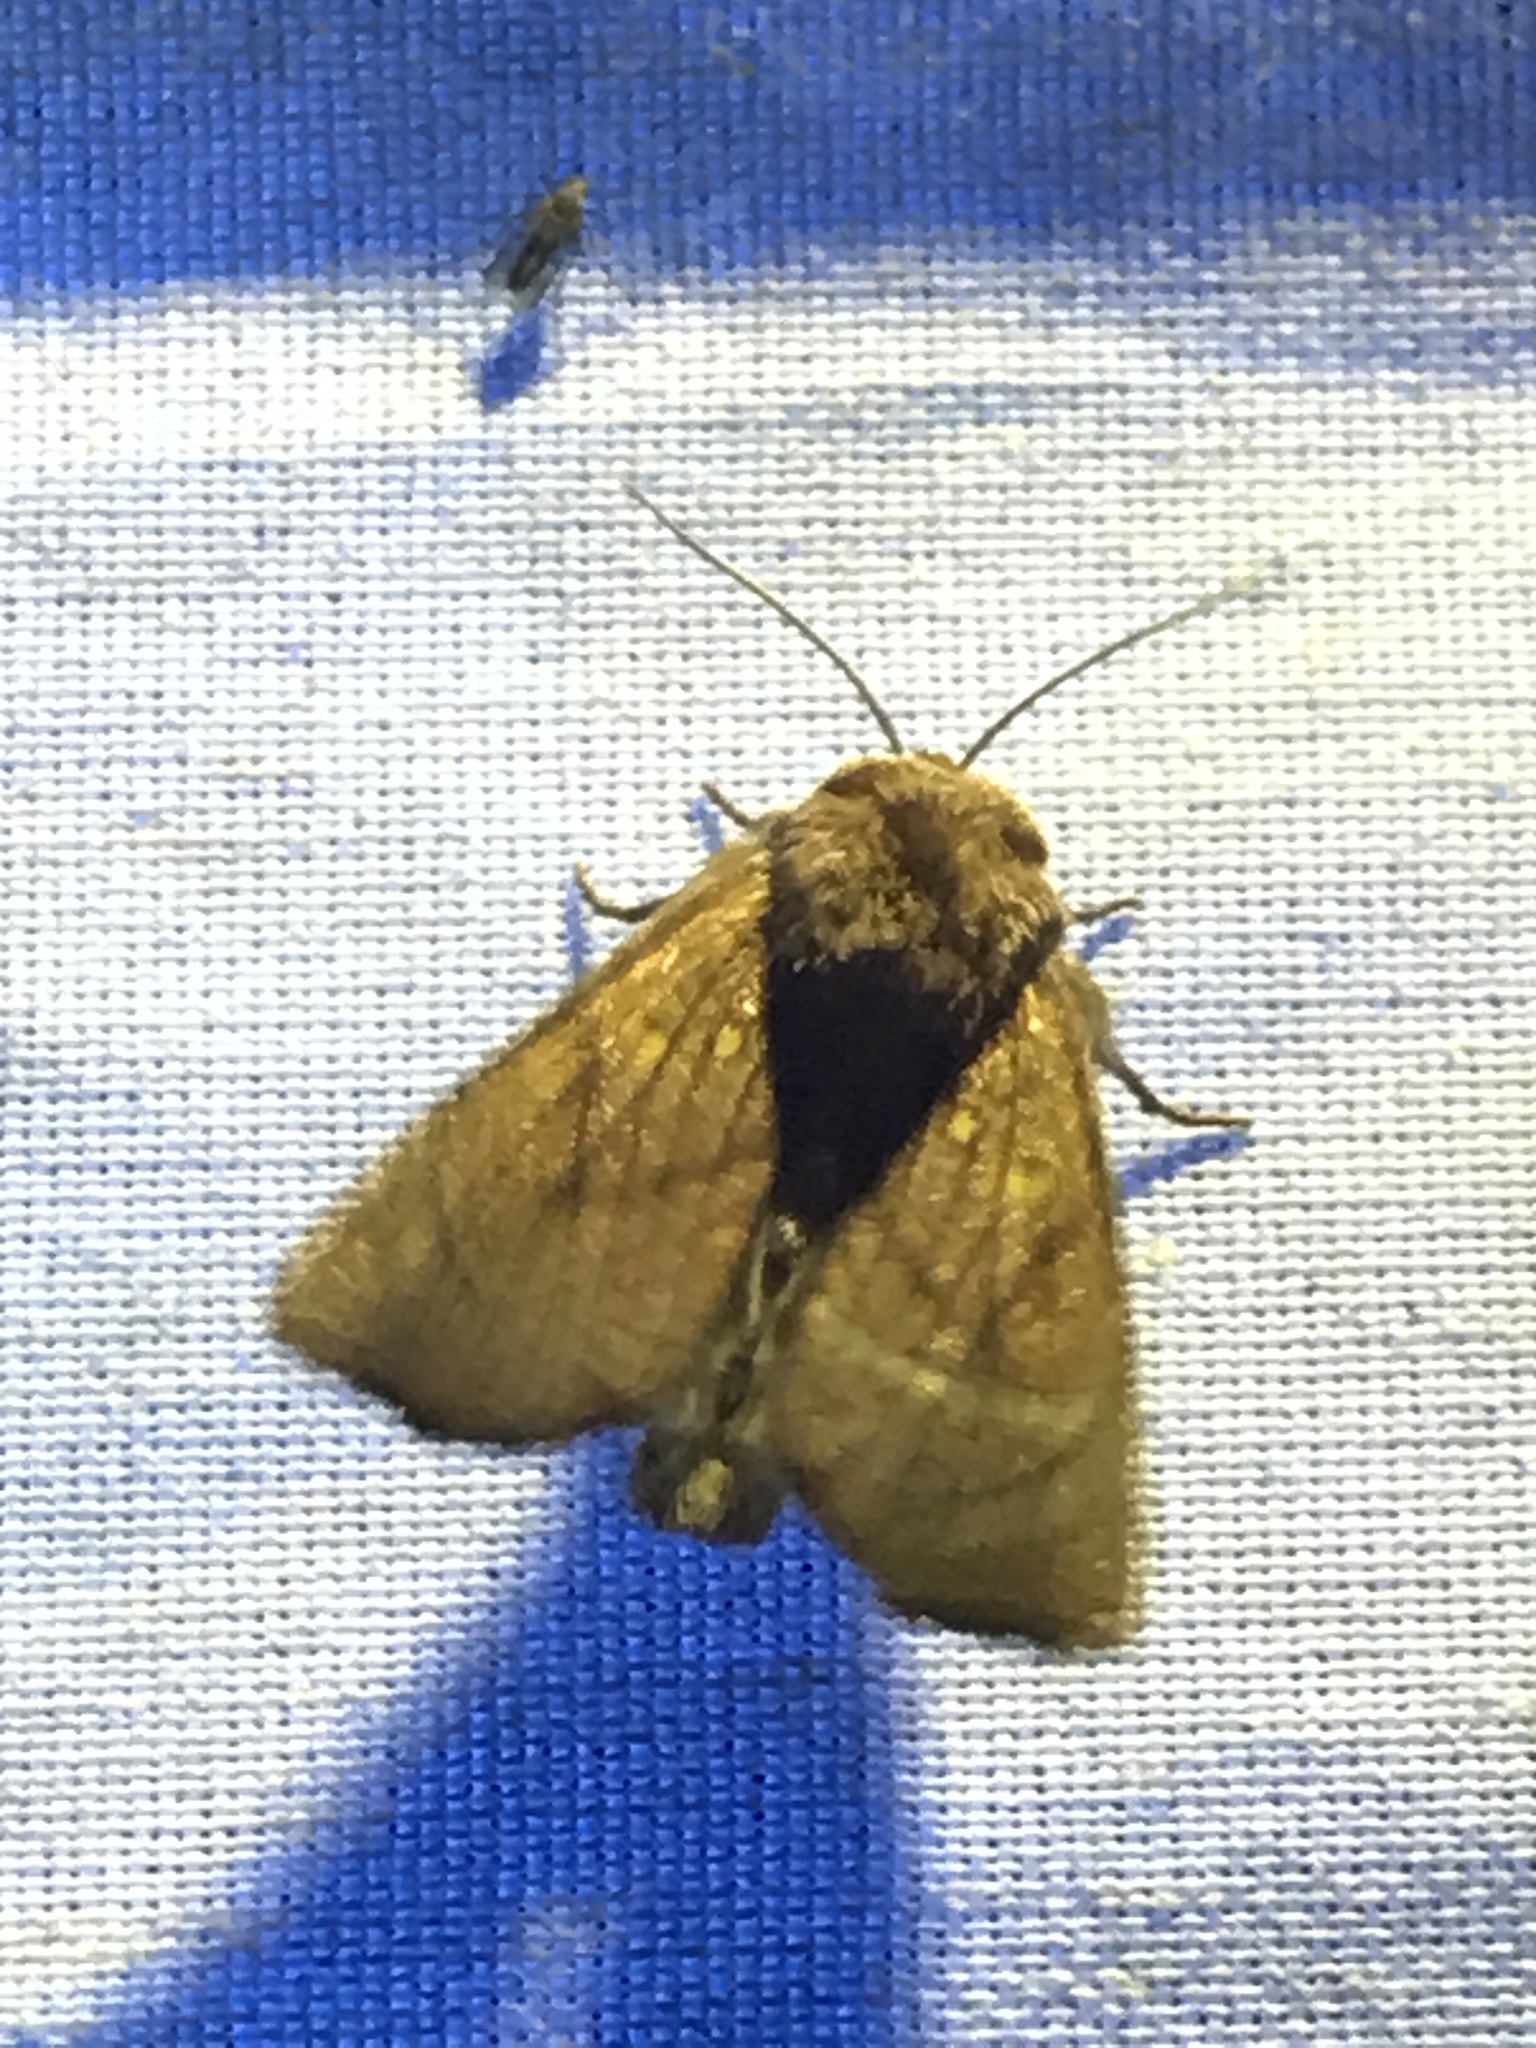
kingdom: Animalia
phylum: Arthropoda
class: Insecta
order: Lepidoptera
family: Noctuidae
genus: Papaipema
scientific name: Papaipema inquaesita
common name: Sensitive fern borer moth
